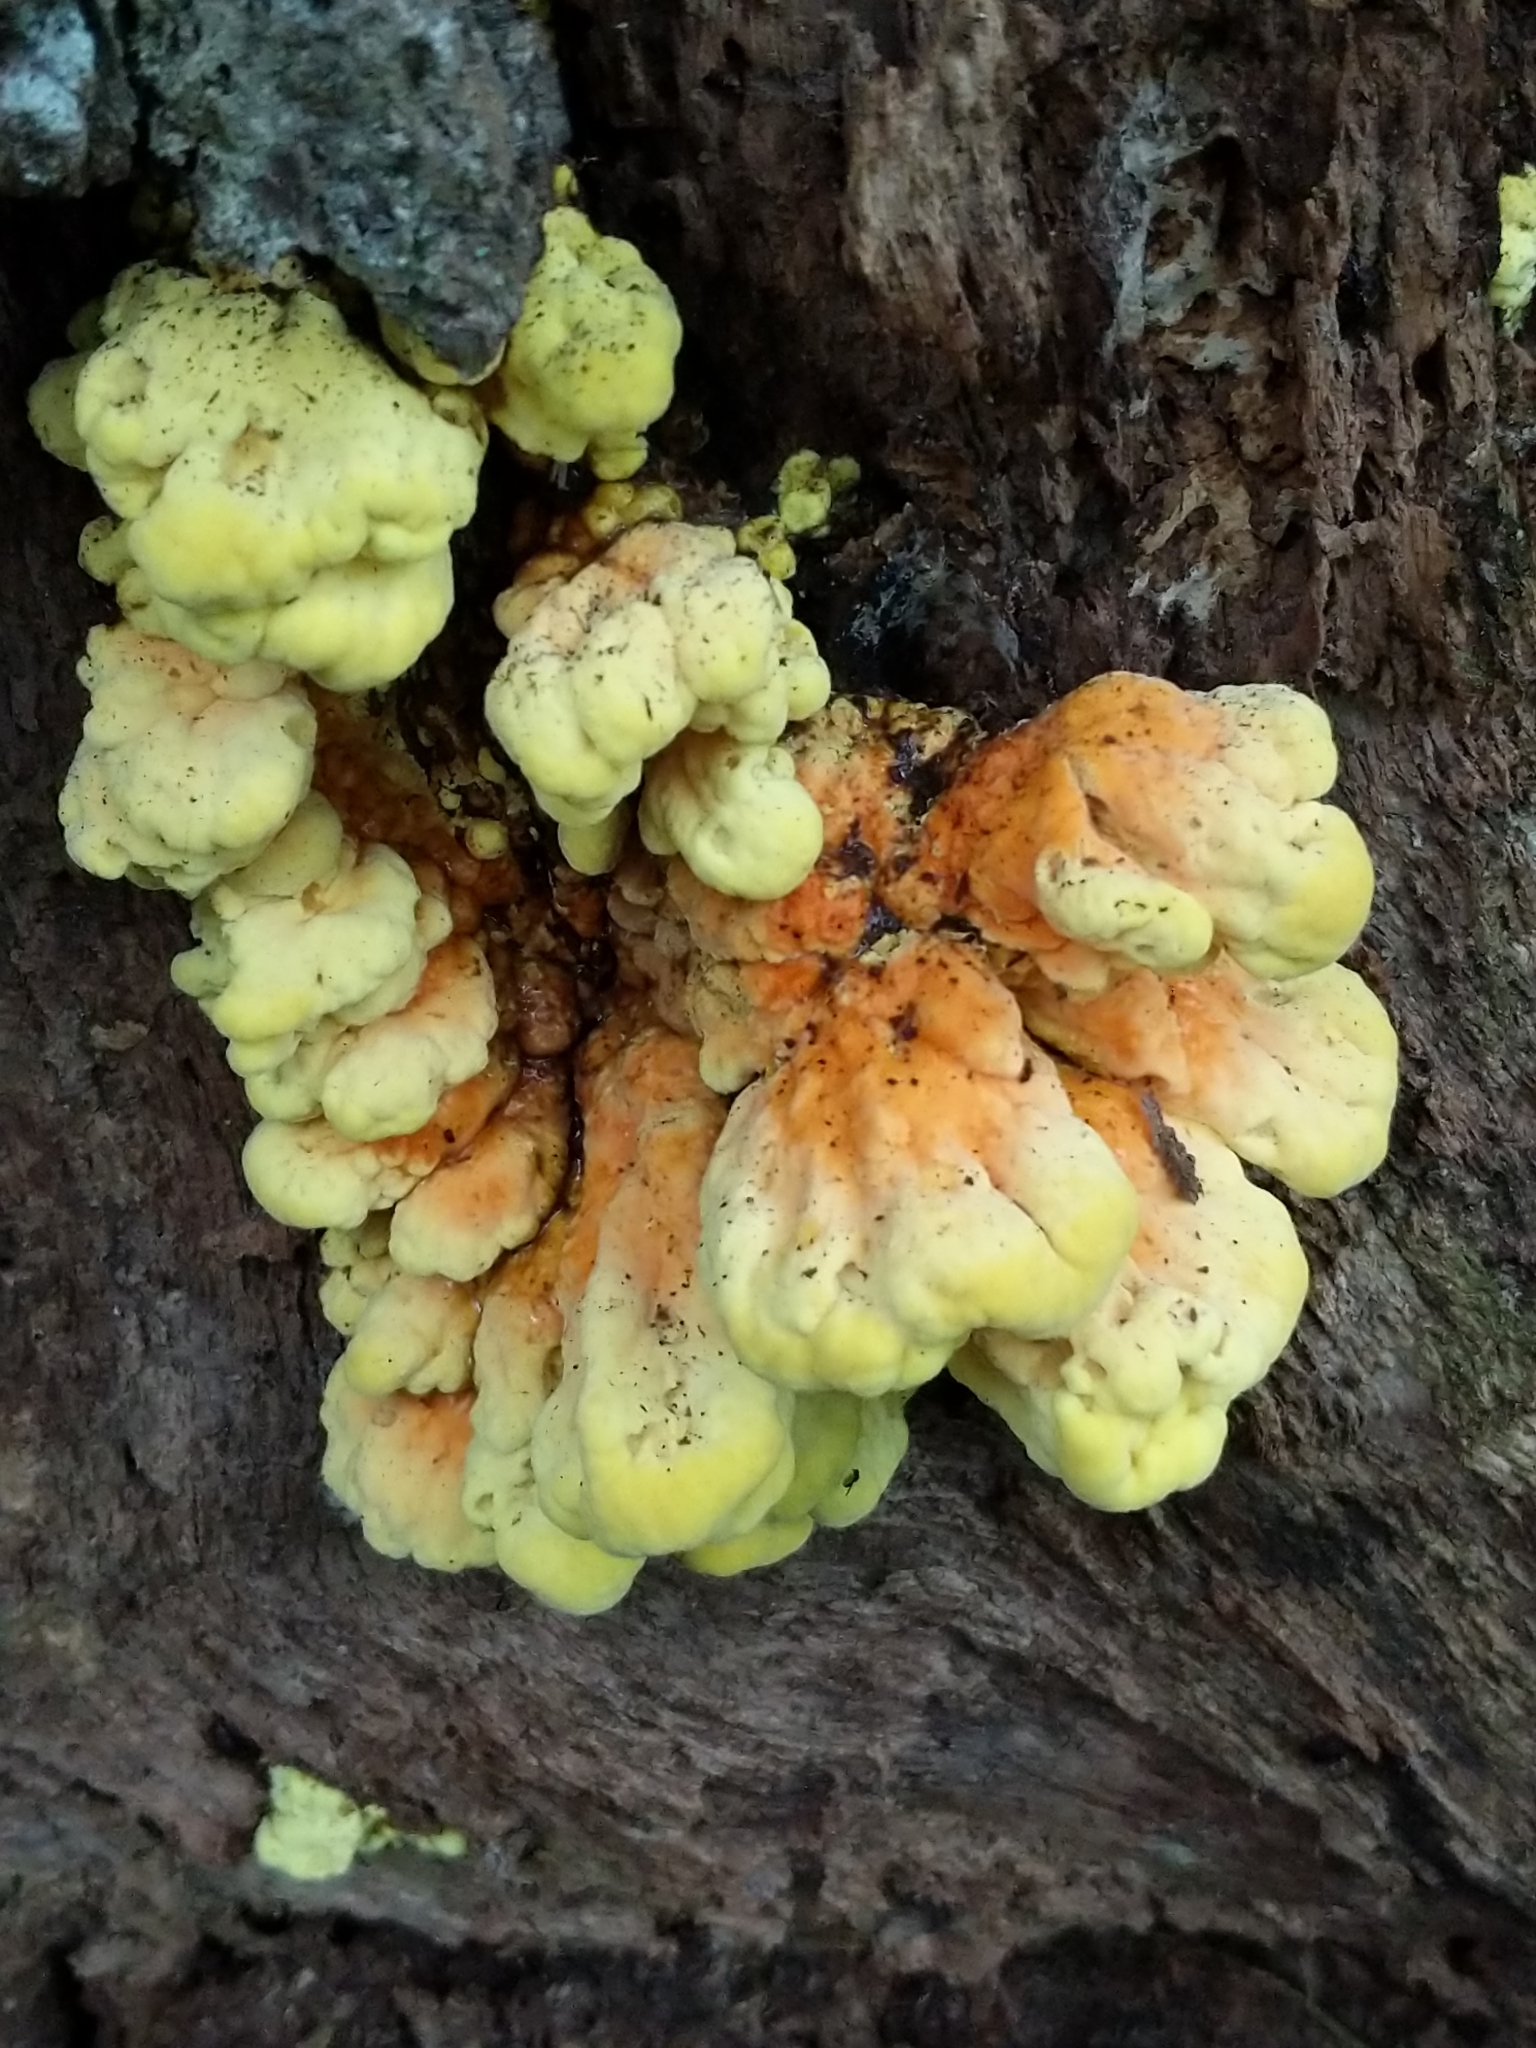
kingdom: Fungi
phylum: Basidiomycota
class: Agaricomycetes
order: Polyporales
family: Laetiporaceae
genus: Laetiporus
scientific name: Laetiporus sulphureus
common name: Chicken of the woods
